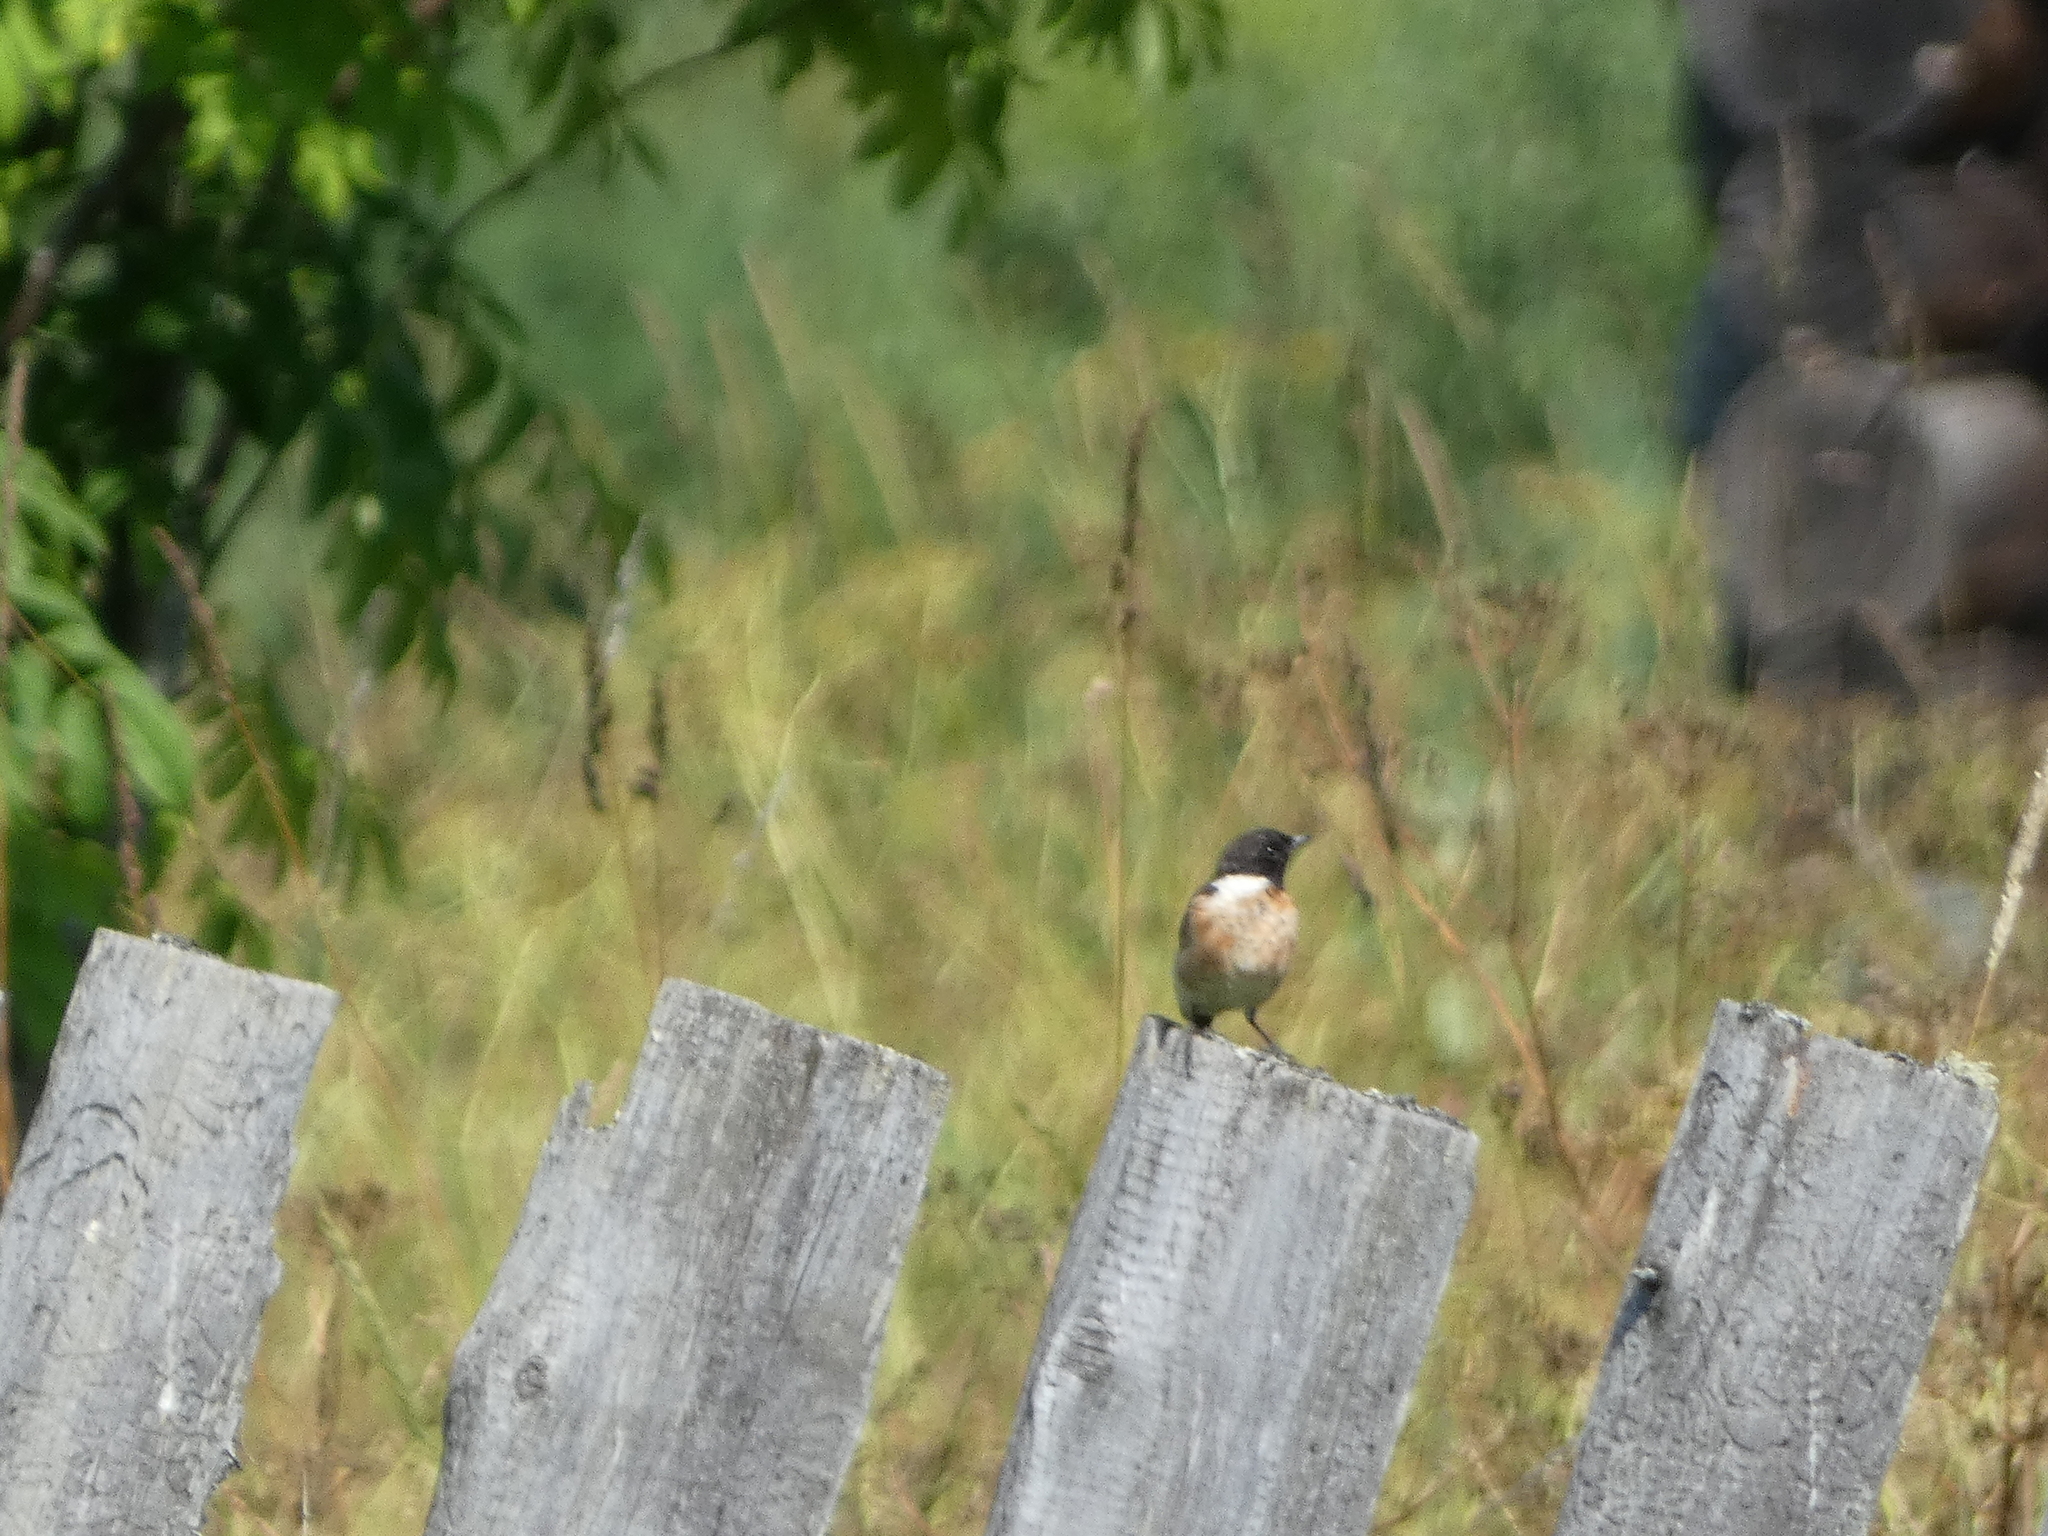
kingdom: Animalia
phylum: Chordata
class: Aves
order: Passeriformes
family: Muscicapidae
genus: Saxicola
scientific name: Saxicola maurus
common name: Siberian stonechat
